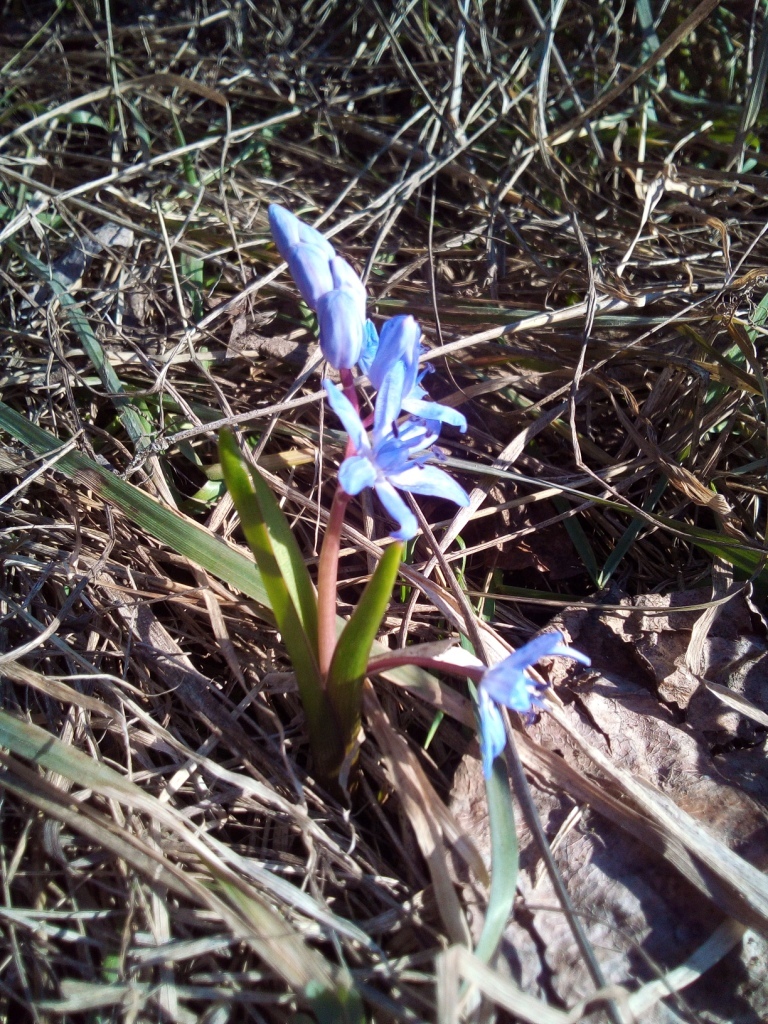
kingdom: Plantae
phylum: Tracheophyta
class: Liliopsida
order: Asparagales
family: Asparagaceae
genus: Scilla
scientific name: Scilla bifolia
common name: Alpine squill
